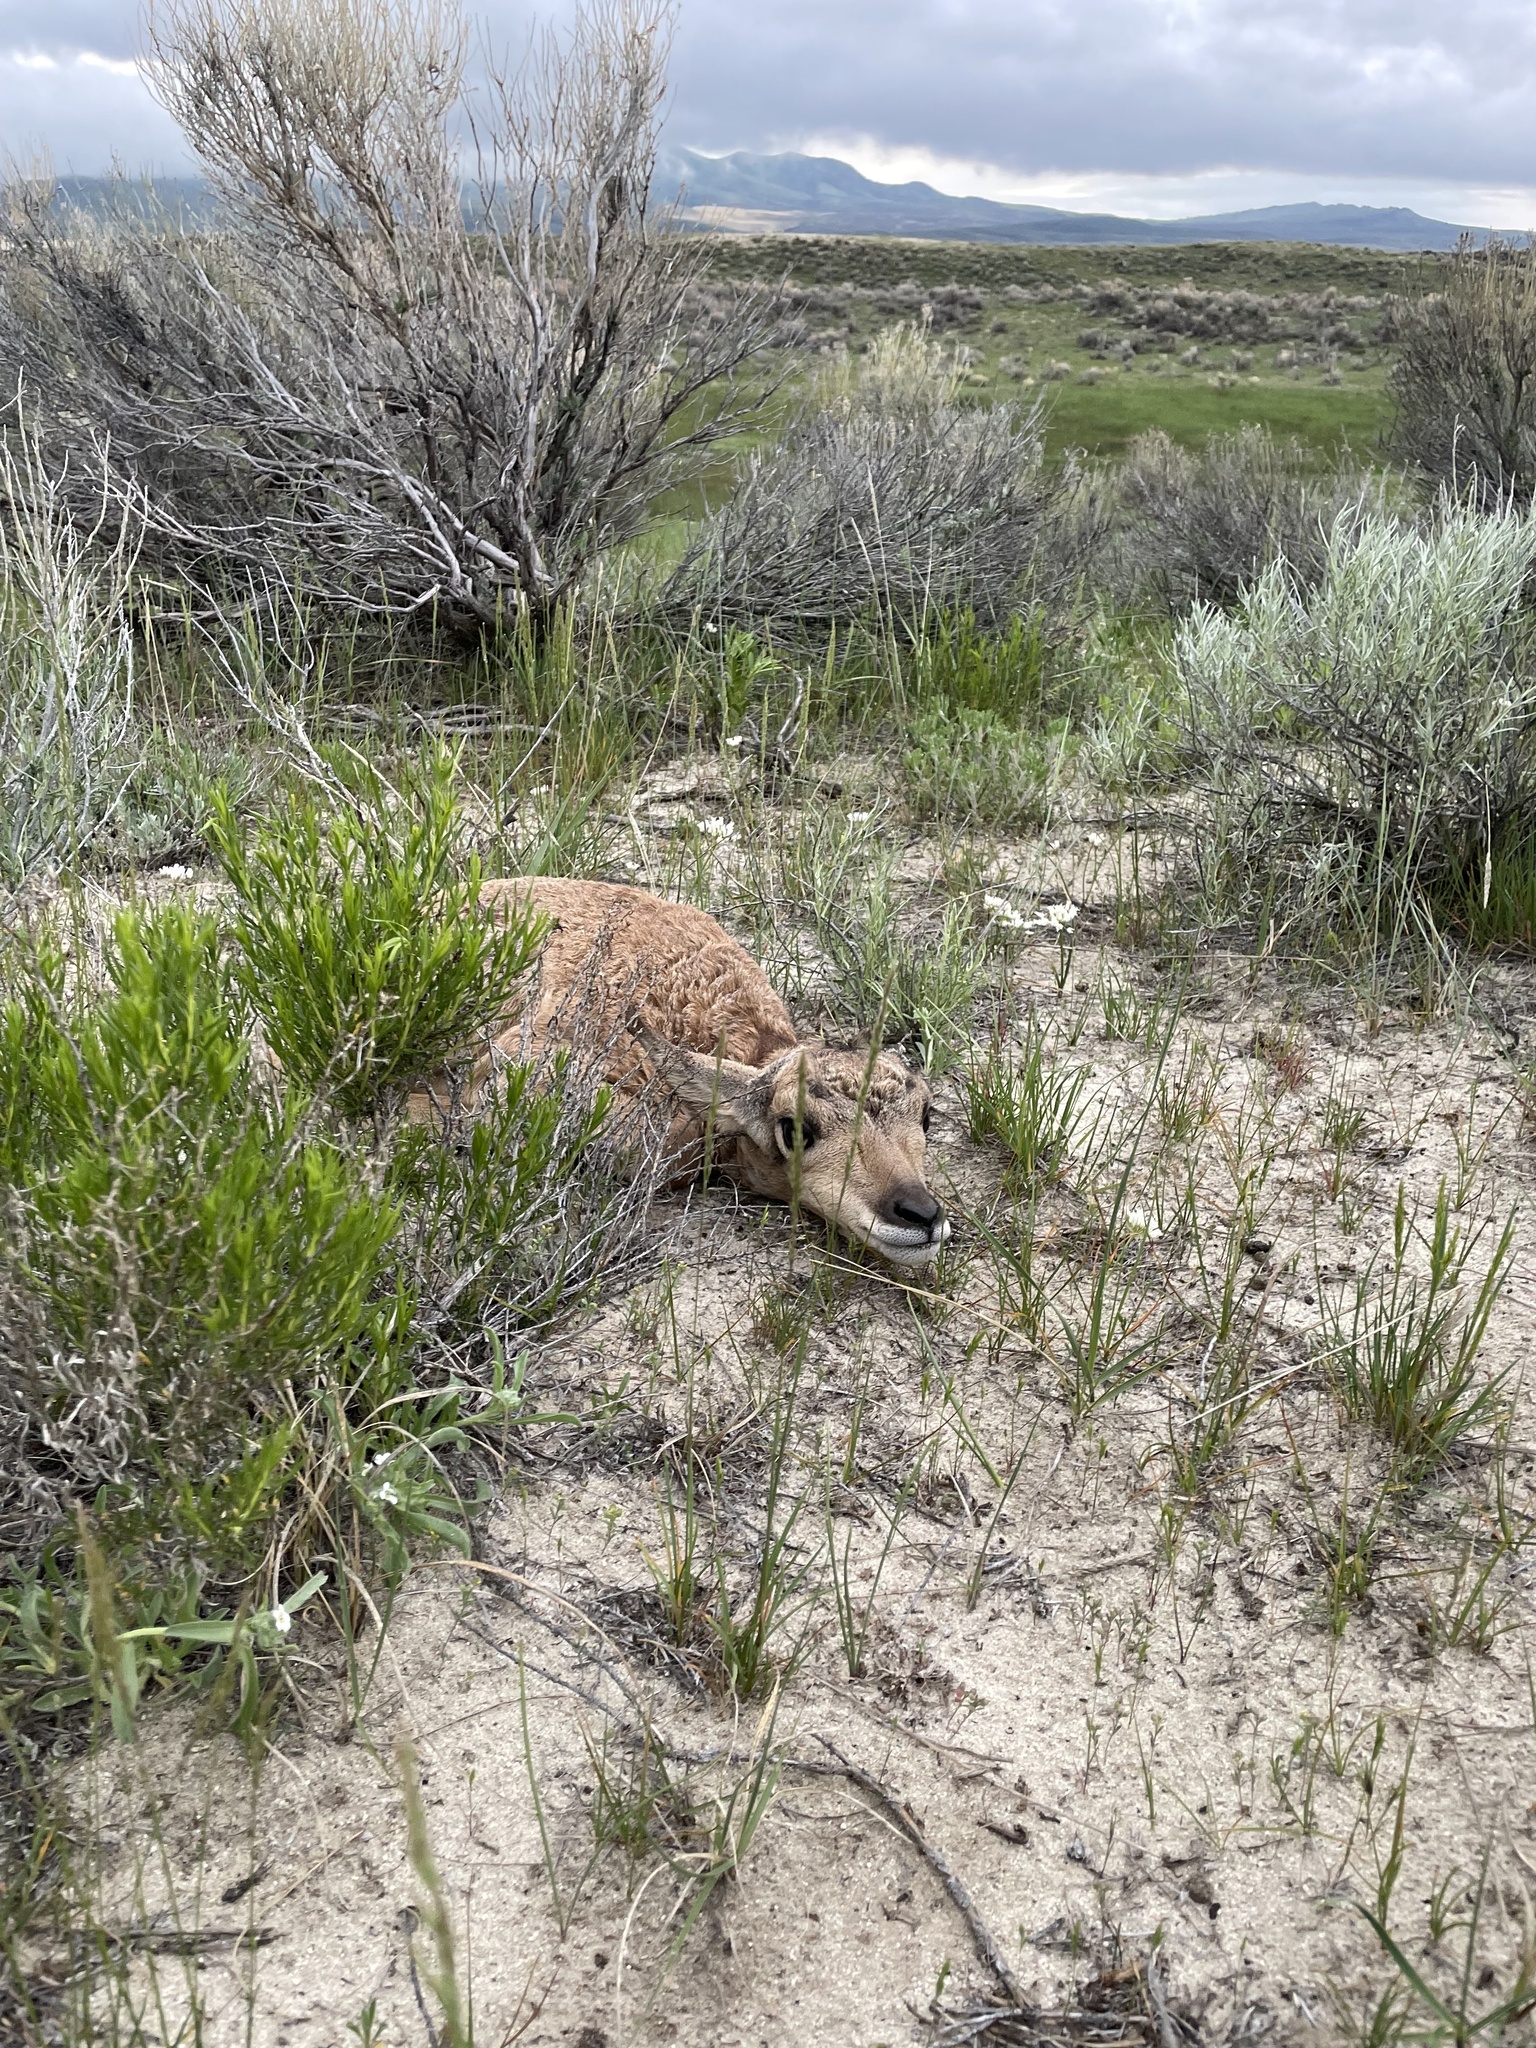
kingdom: Animalia
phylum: Chordata
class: Mammalia
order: Artiodactyla
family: Antilocapridae
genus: Antilocapra
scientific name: Antilocapra americana
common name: Pronghorn
